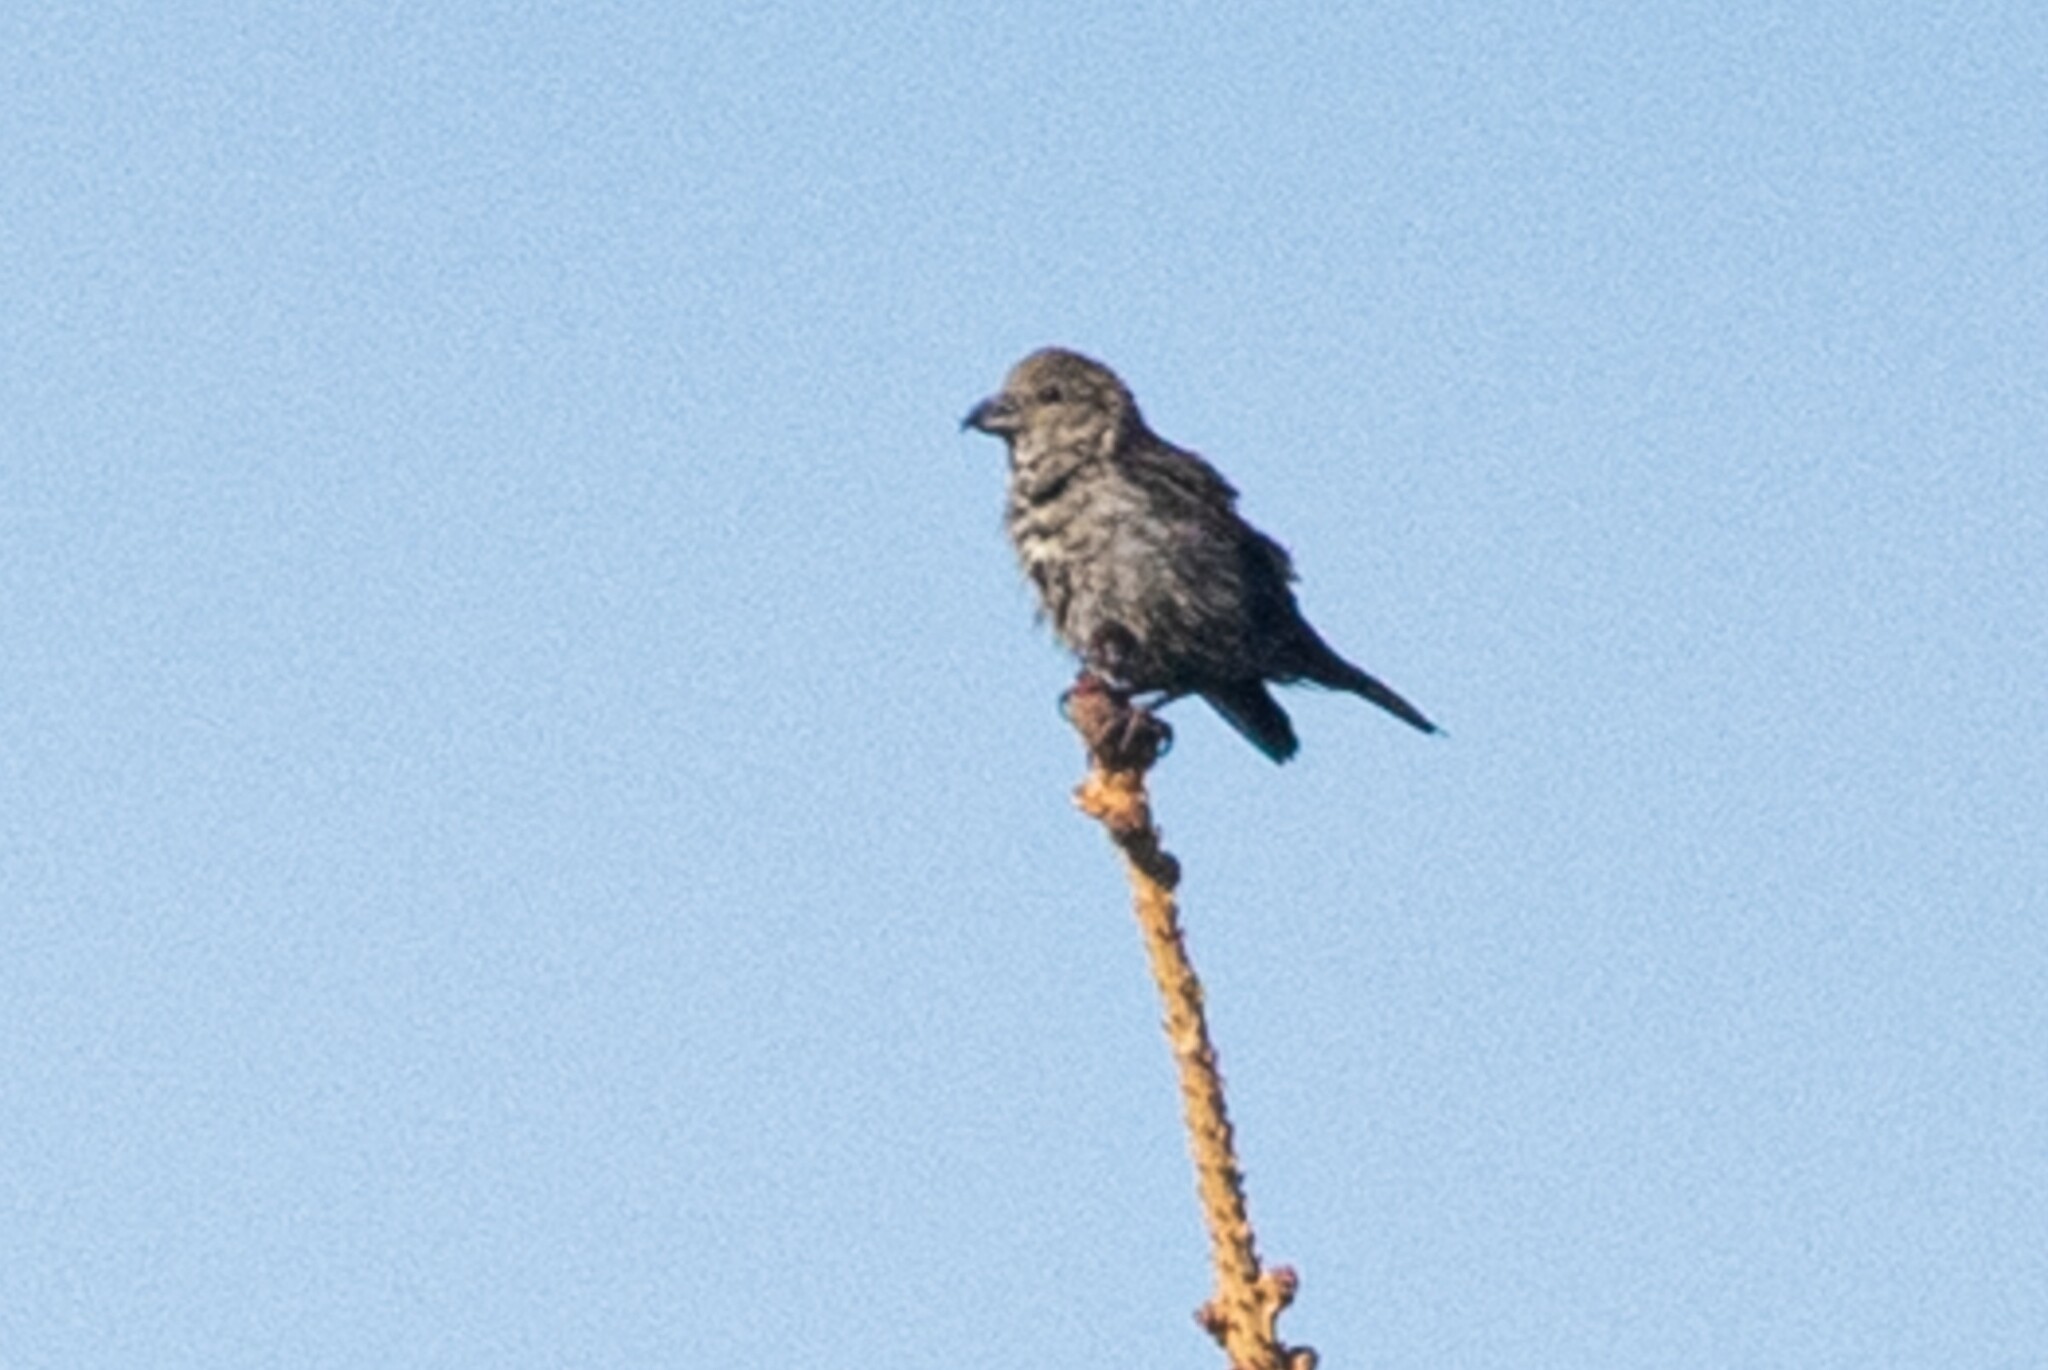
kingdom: Animalia
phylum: Chordata
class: Aves
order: Passeriformes
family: Fringillidae
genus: Loxia
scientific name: Loxia curvirostra
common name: Red crossbill
